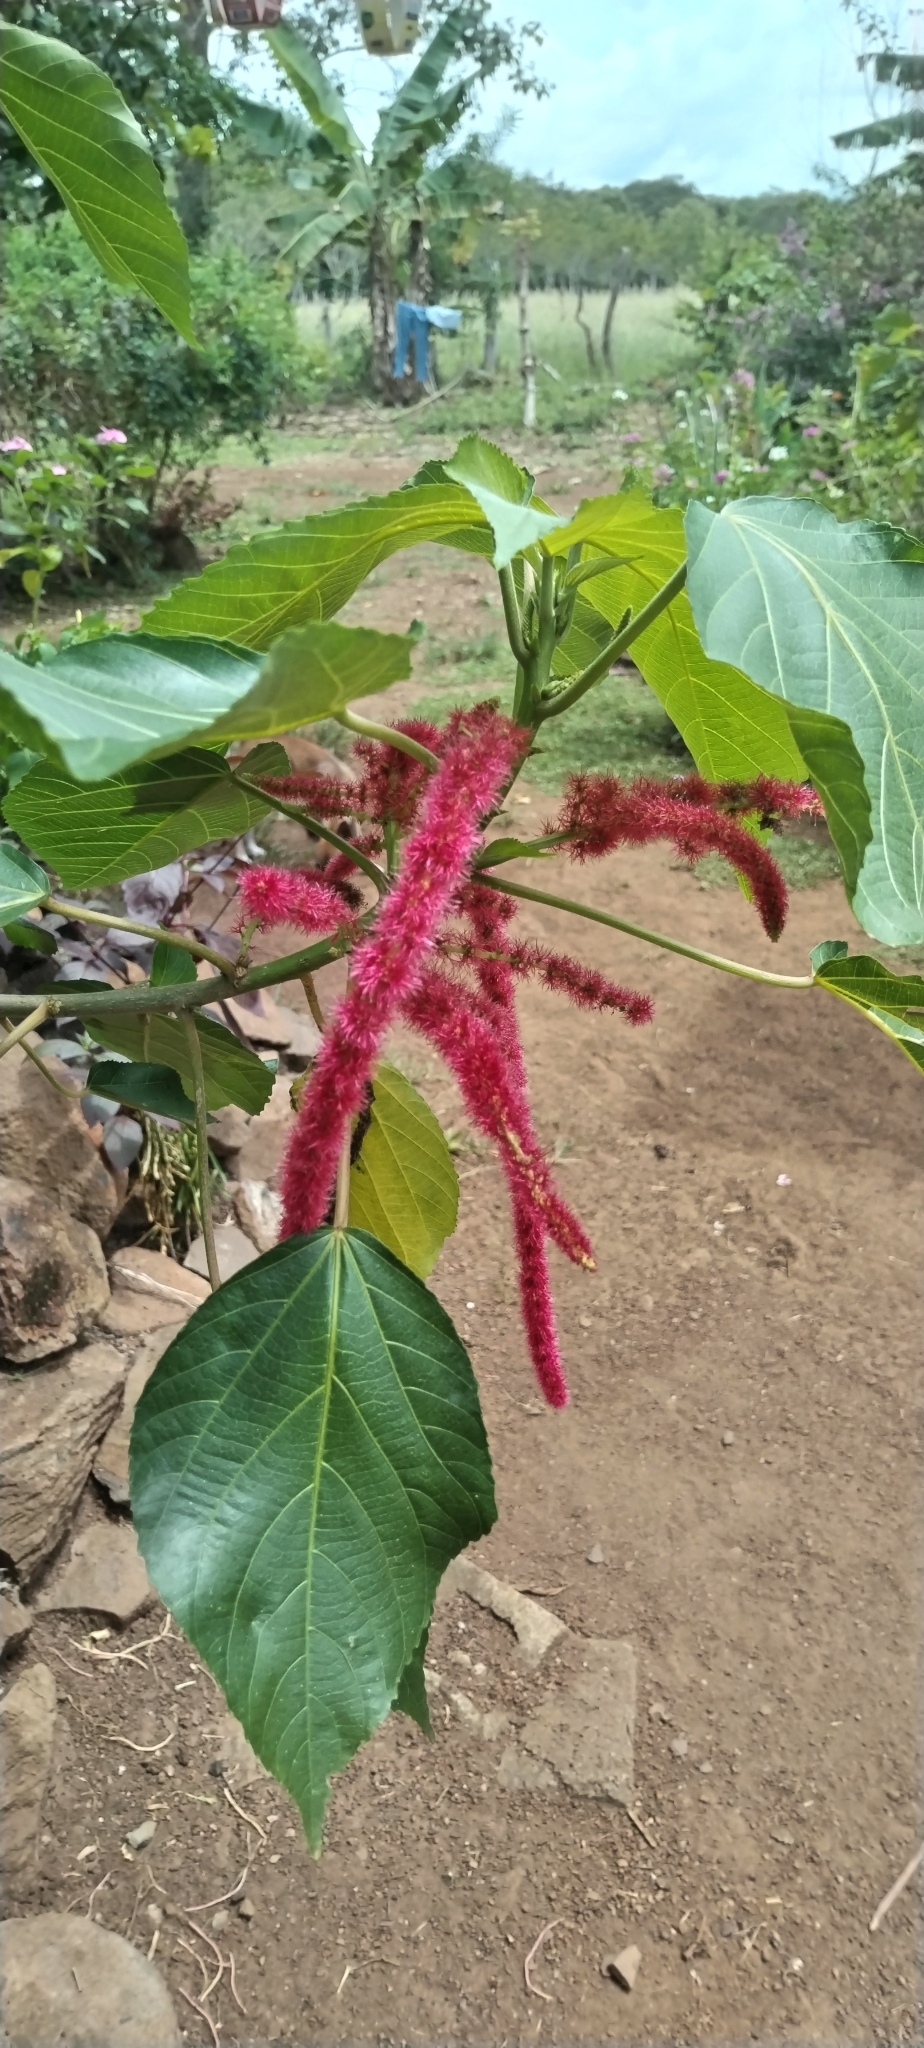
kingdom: Plantae
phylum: Tracheophyta
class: Magnoliopsida
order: Malpighiales
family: Euphorbiaceae
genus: Acalypha
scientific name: Acalypha hispida
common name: Chenilleplant
